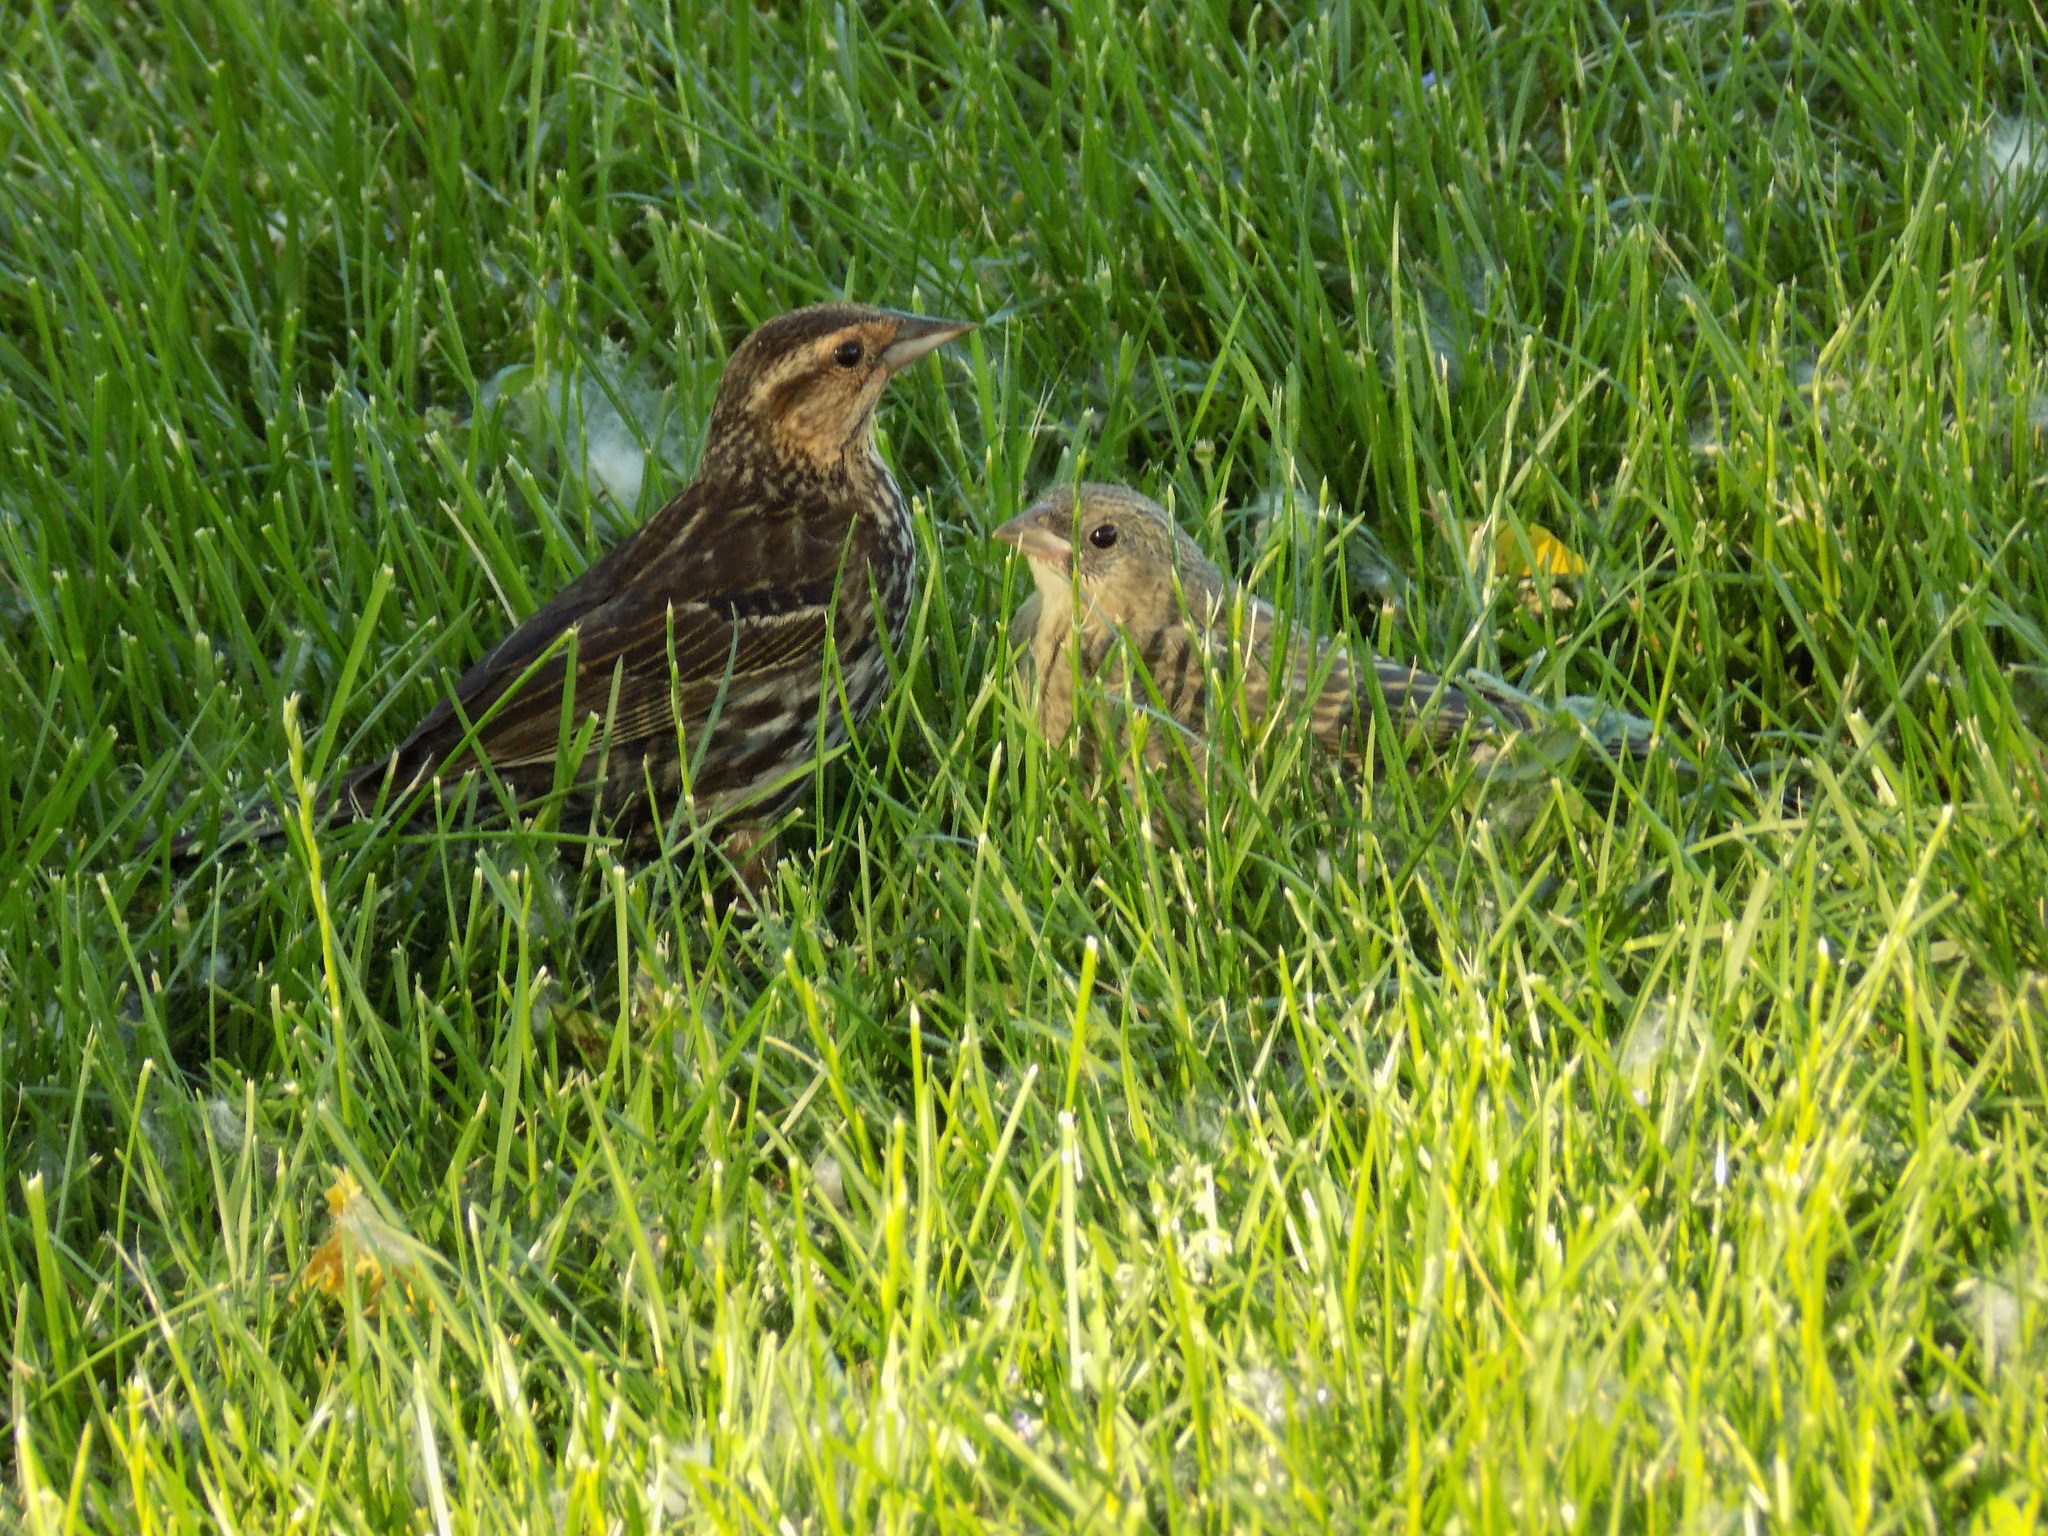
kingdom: Animalia
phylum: Chordata
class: Aves
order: Passeriformes
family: Icteridae
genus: Agelaius
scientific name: Agelaius phoeniceus
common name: Red-winged blackbird
